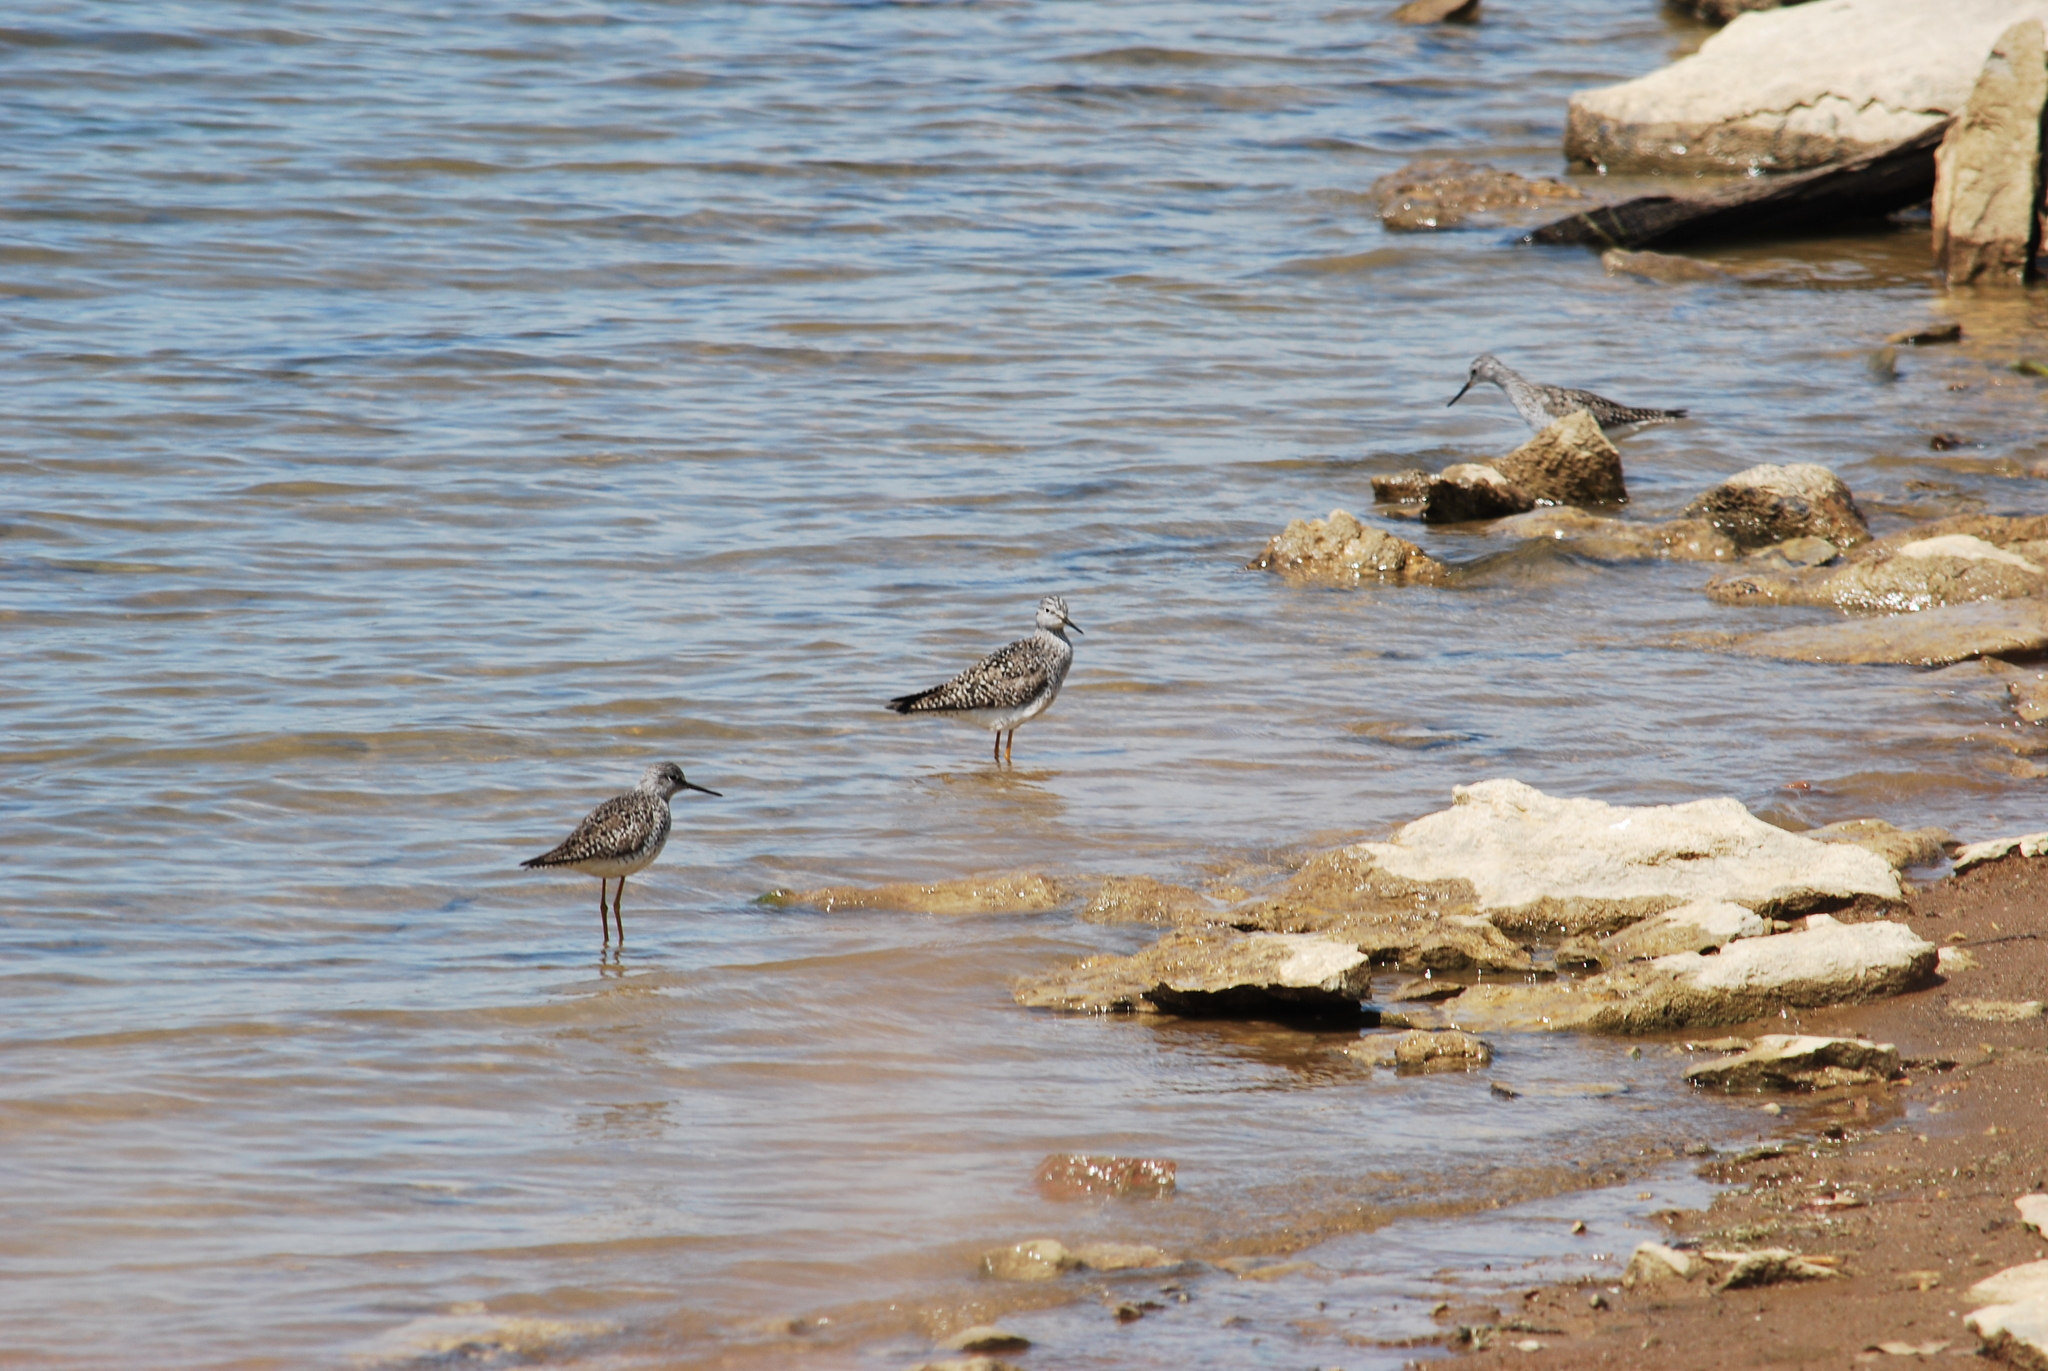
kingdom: Animalia
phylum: Chordata
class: Aves
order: Charadriiformes
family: Scolopacidae
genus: Tringa
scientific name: Tringa flavipes
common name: Lesser yellowlegs
